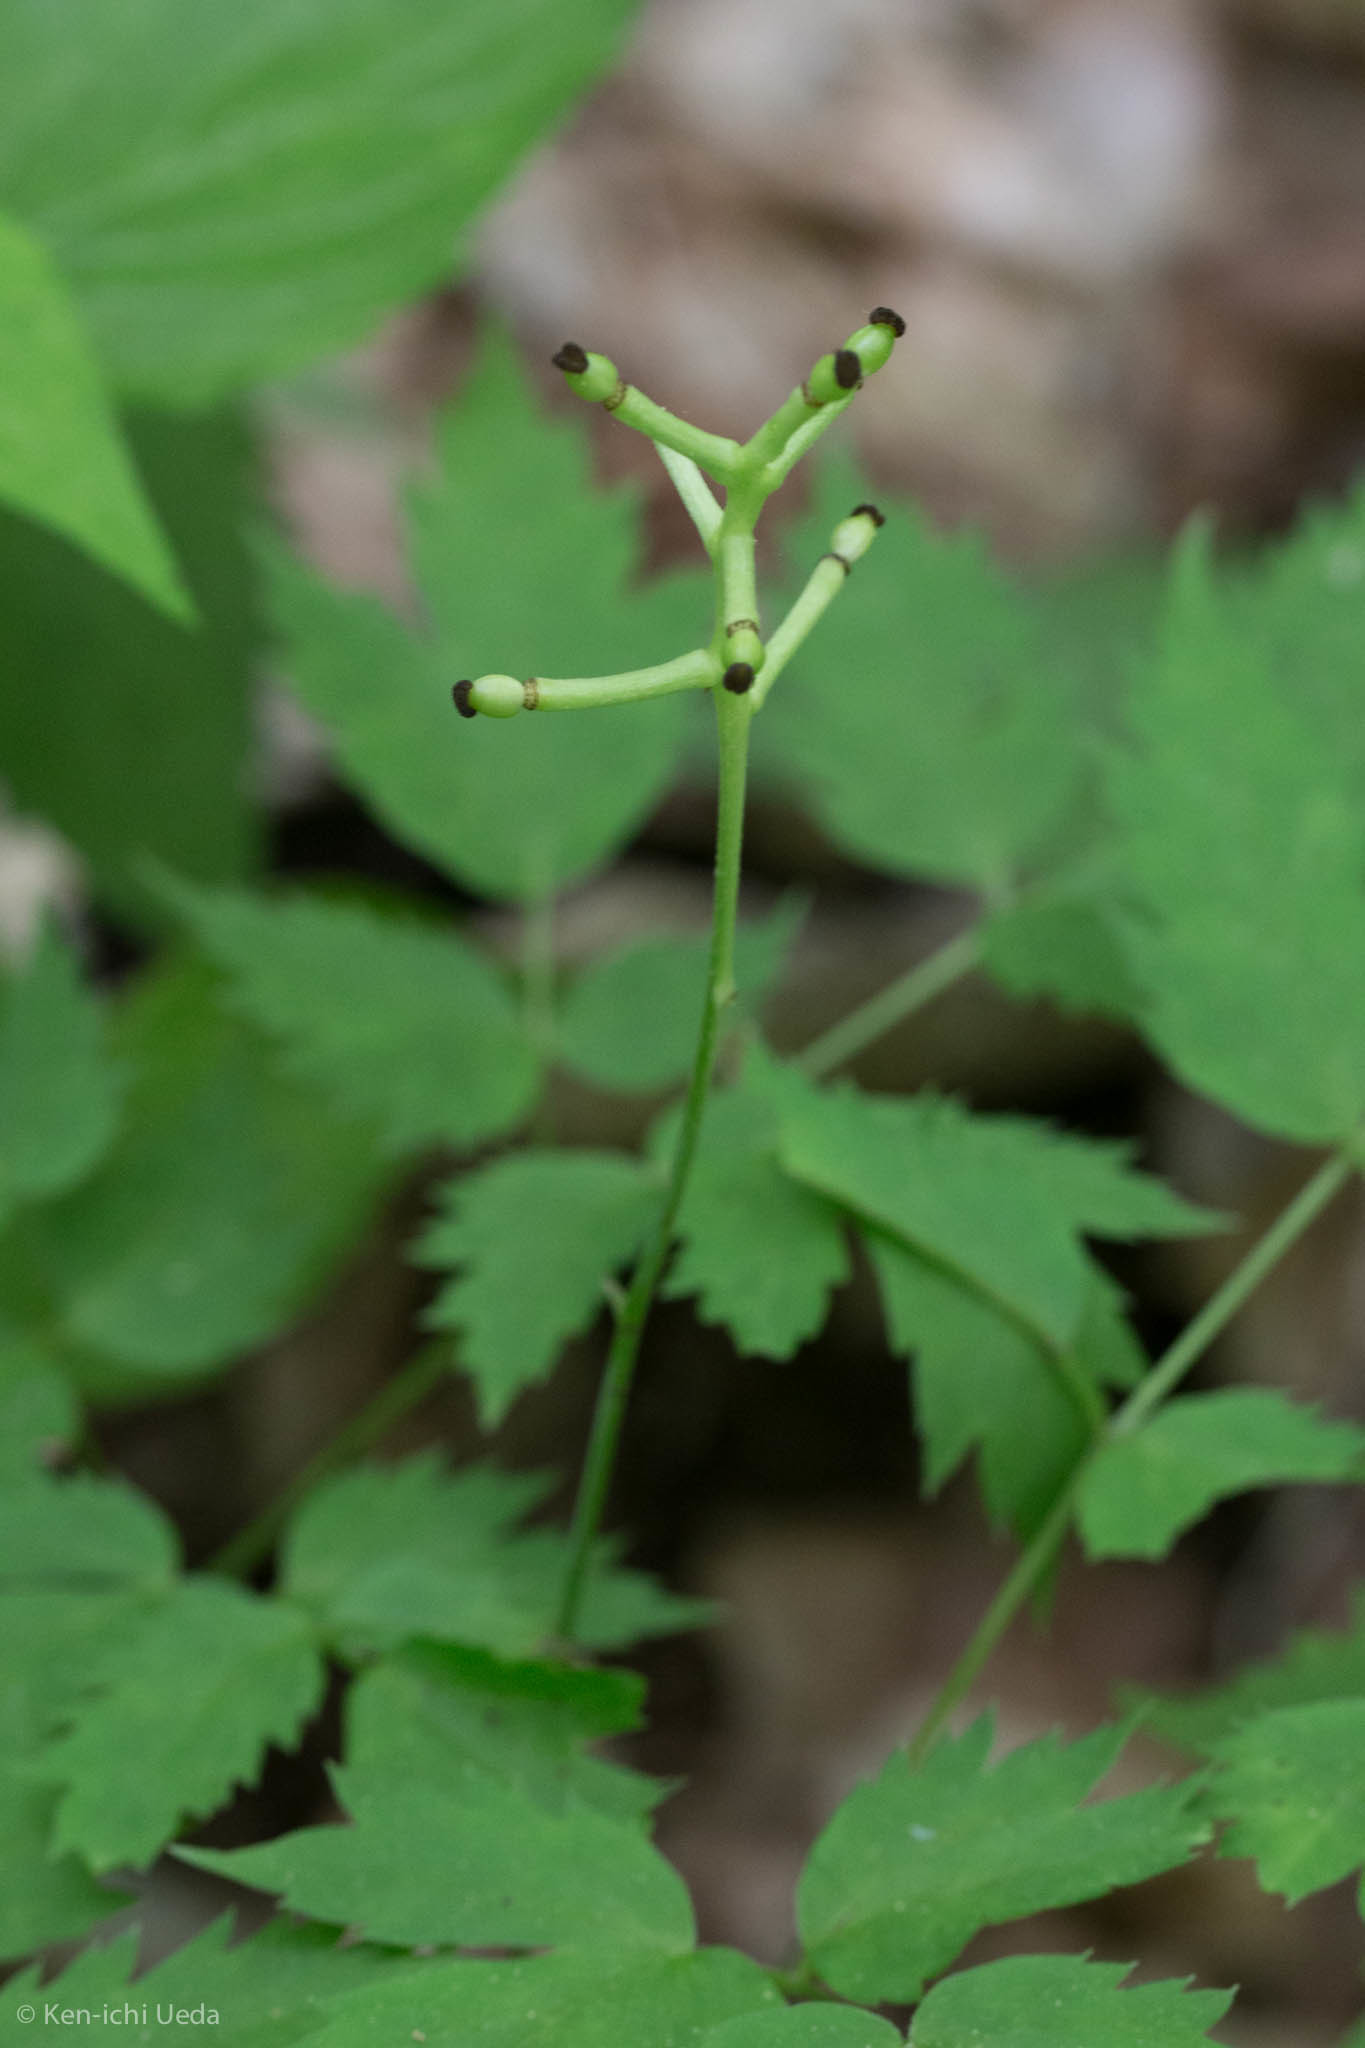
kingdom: Plantae
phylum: Tracheophyta
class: Magnoliopsida
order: Ranunculales
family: Ranunculaceae
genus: Actaea
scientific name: Actaea pachypoda
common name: Doll's-eyes
